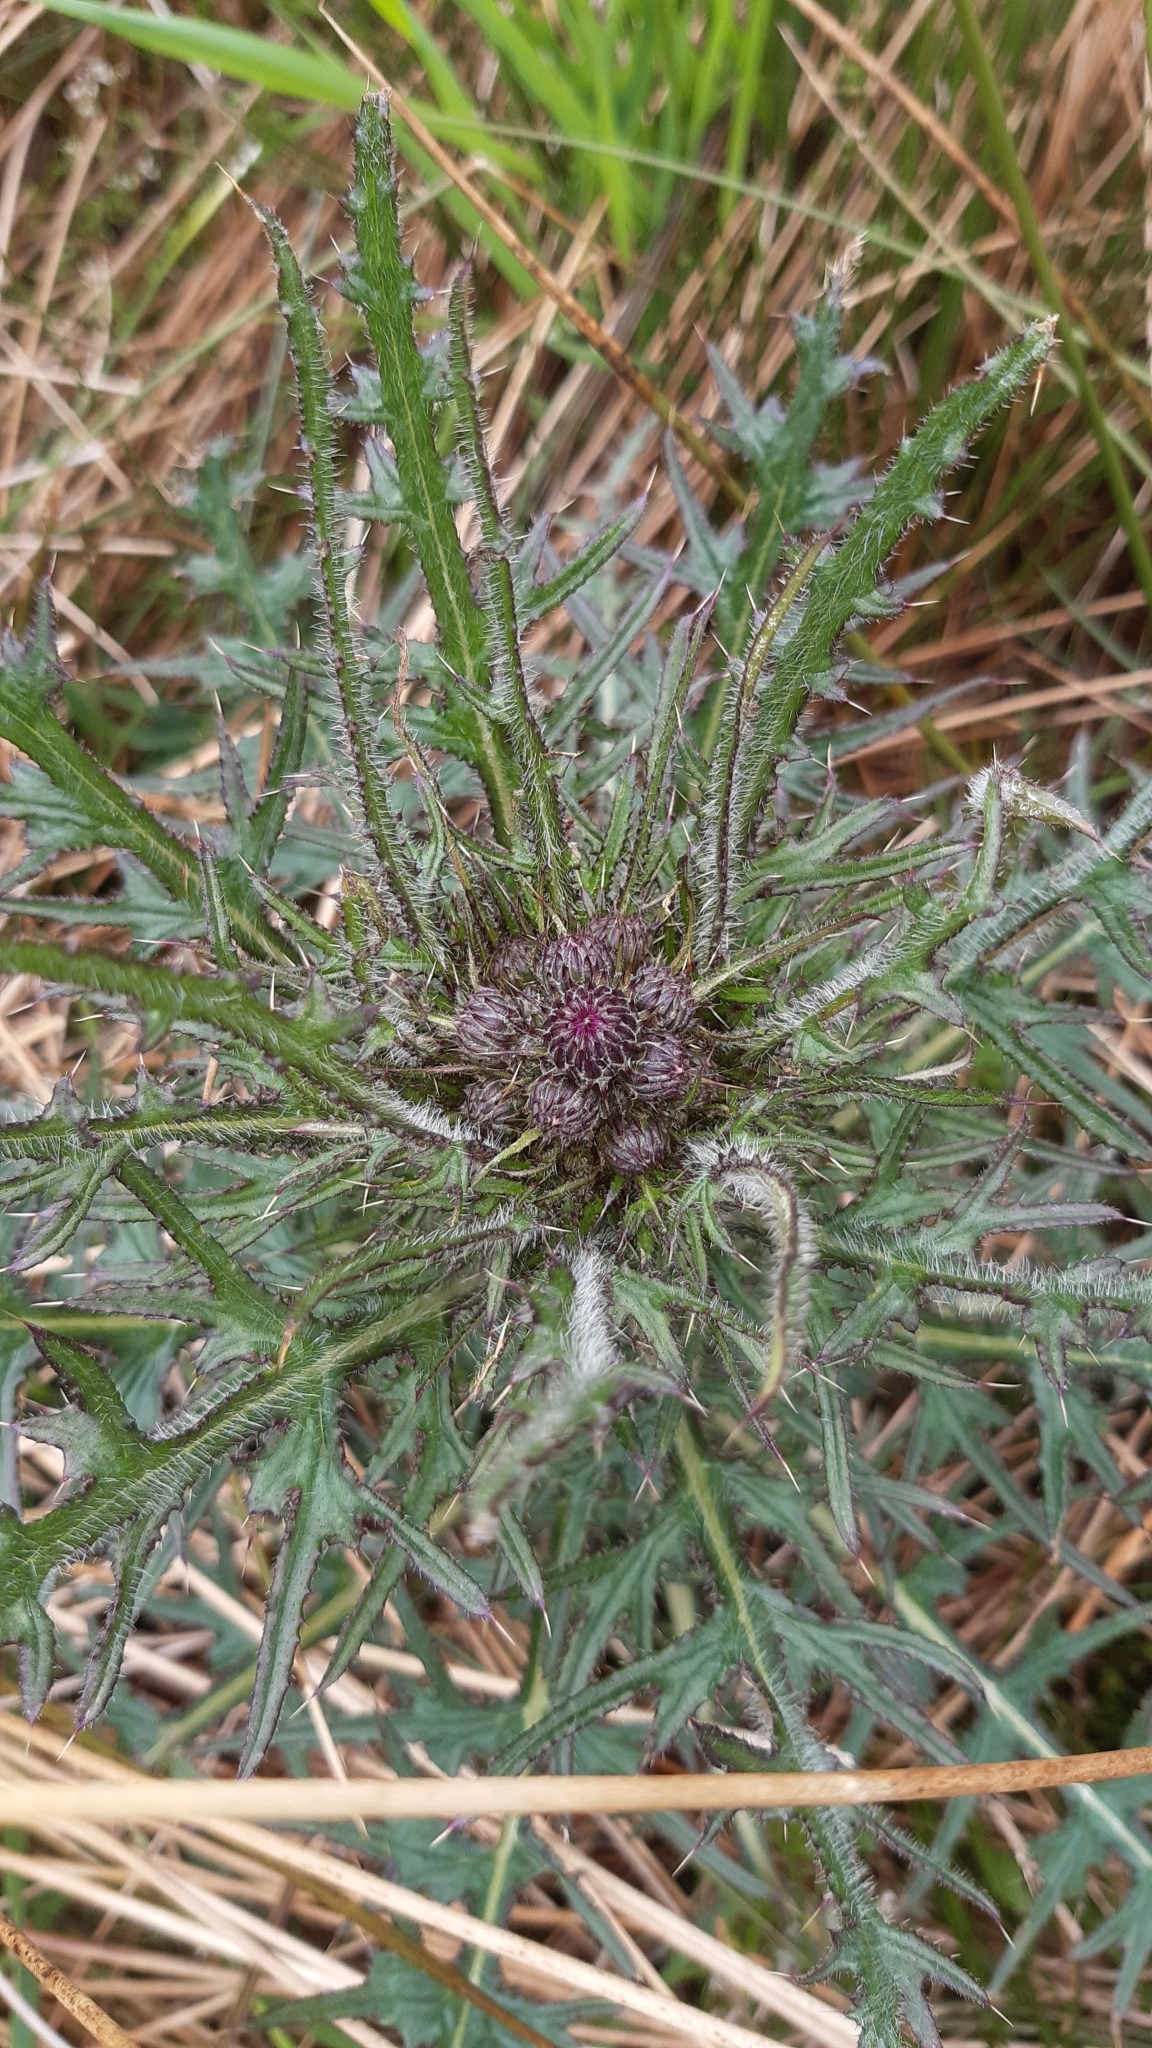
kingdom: Plantae
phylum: Tracheophyta
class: Magnoliopsida
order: Asterales
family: Asteraceae
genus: Cirsium
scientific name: Cirsium palustre
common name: Marsh thistle
